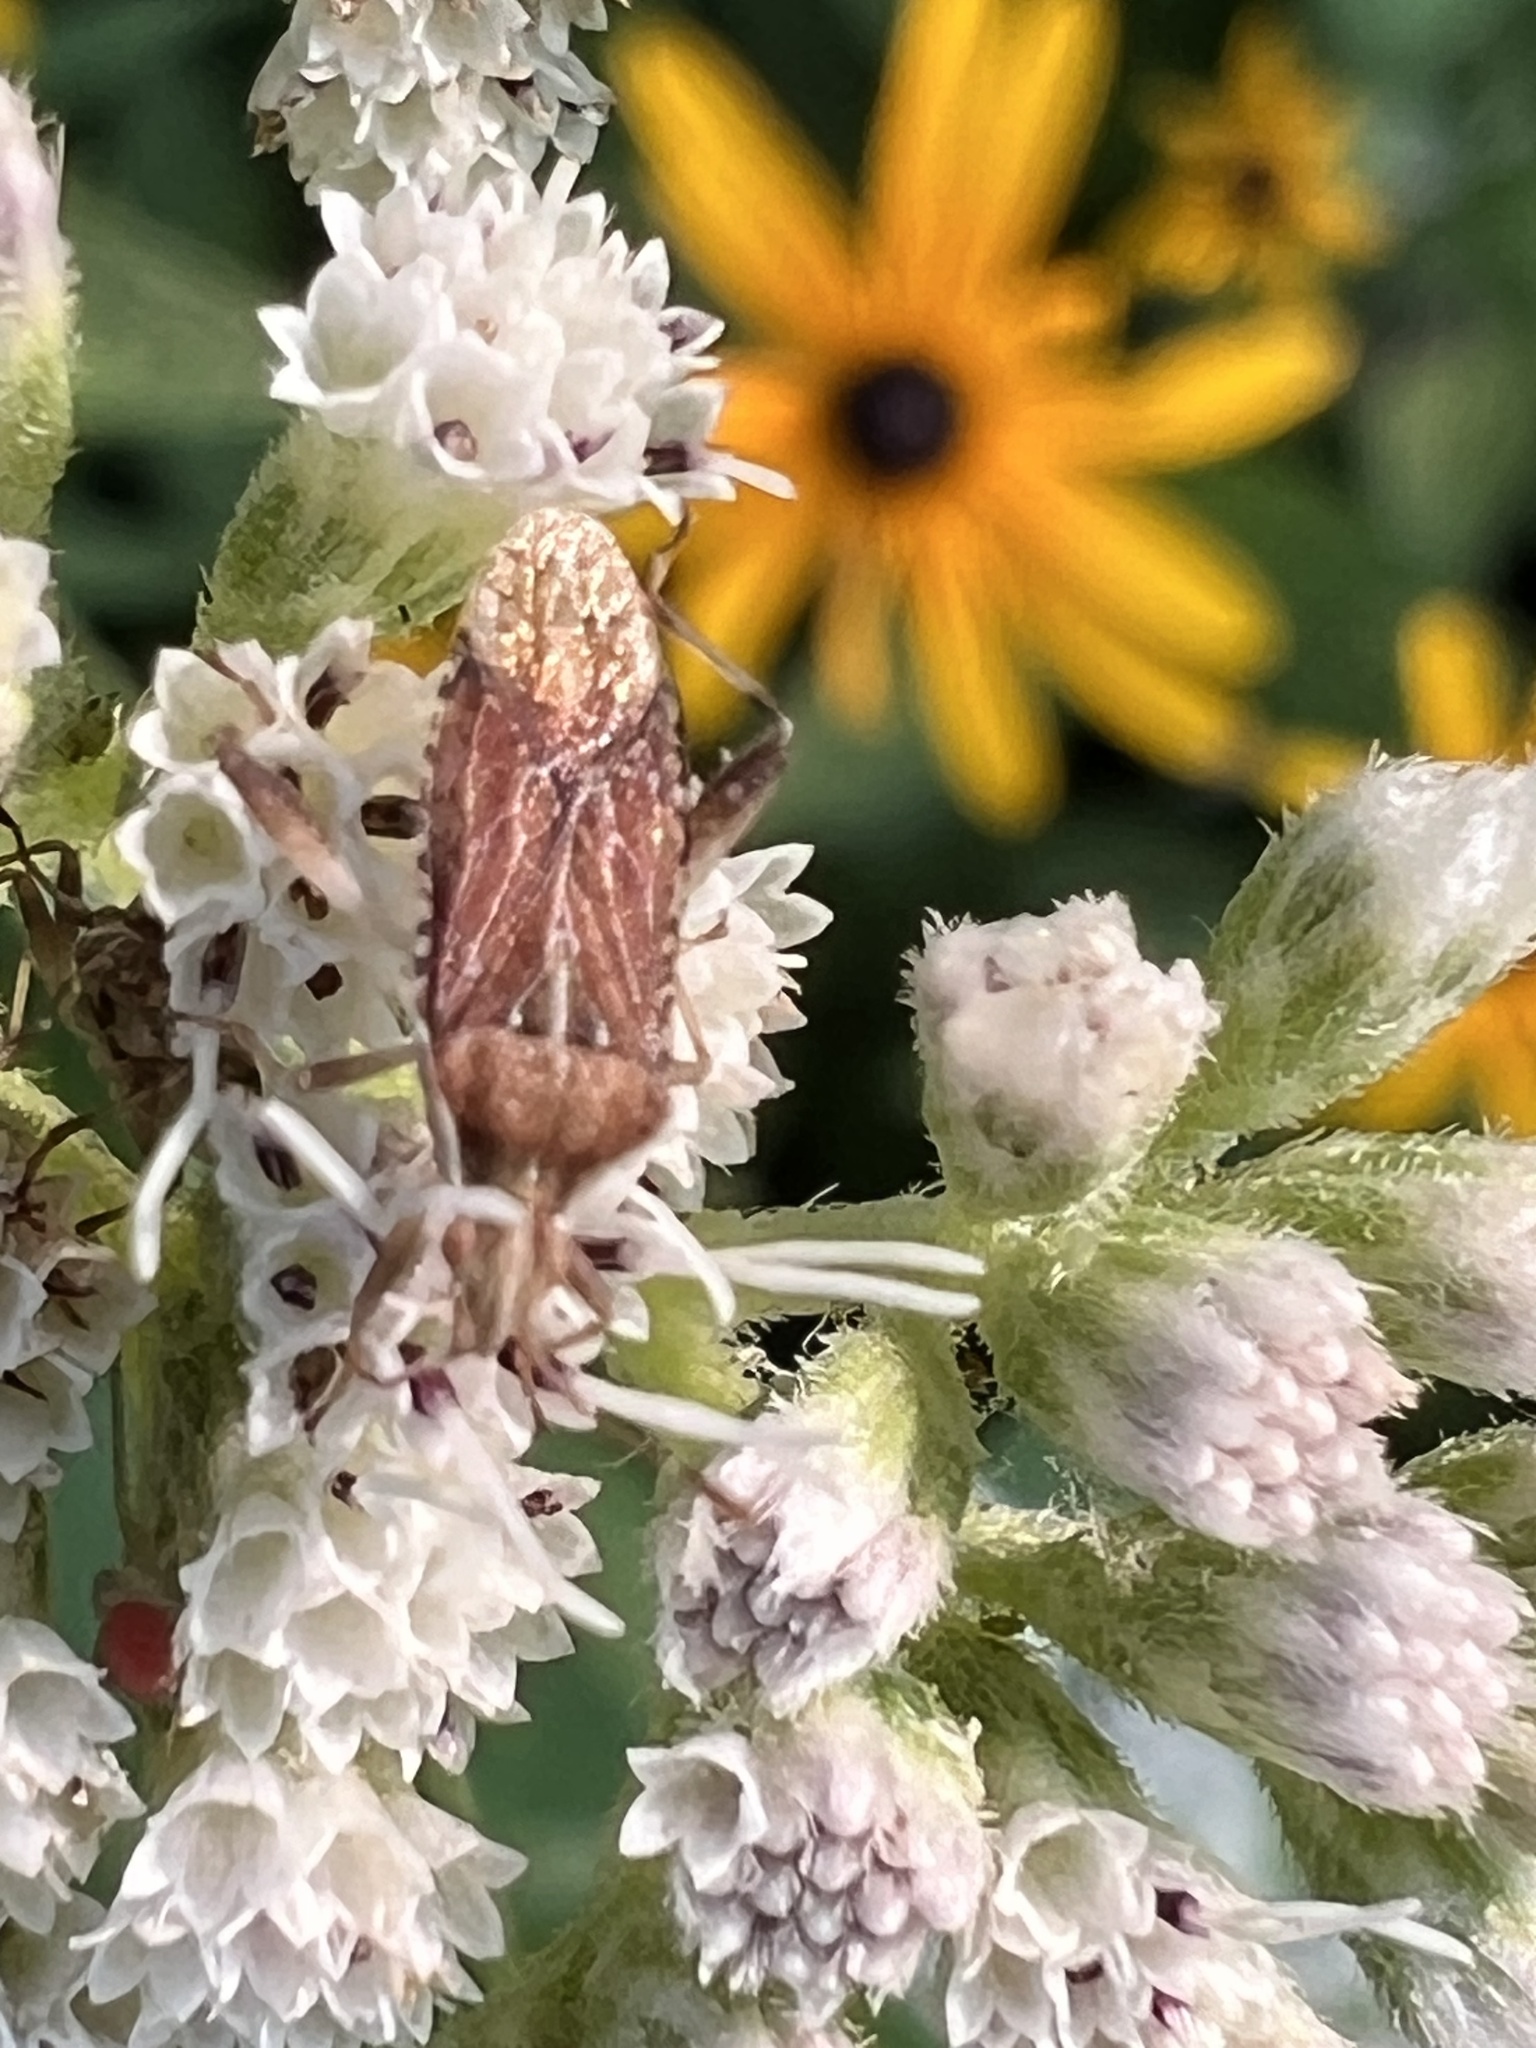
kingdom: Animalia
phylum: Arthropoda
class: Insecta
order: Hemiptera
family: Rhopalidae
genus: Harmostes
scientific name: Harmostes fraterculus
